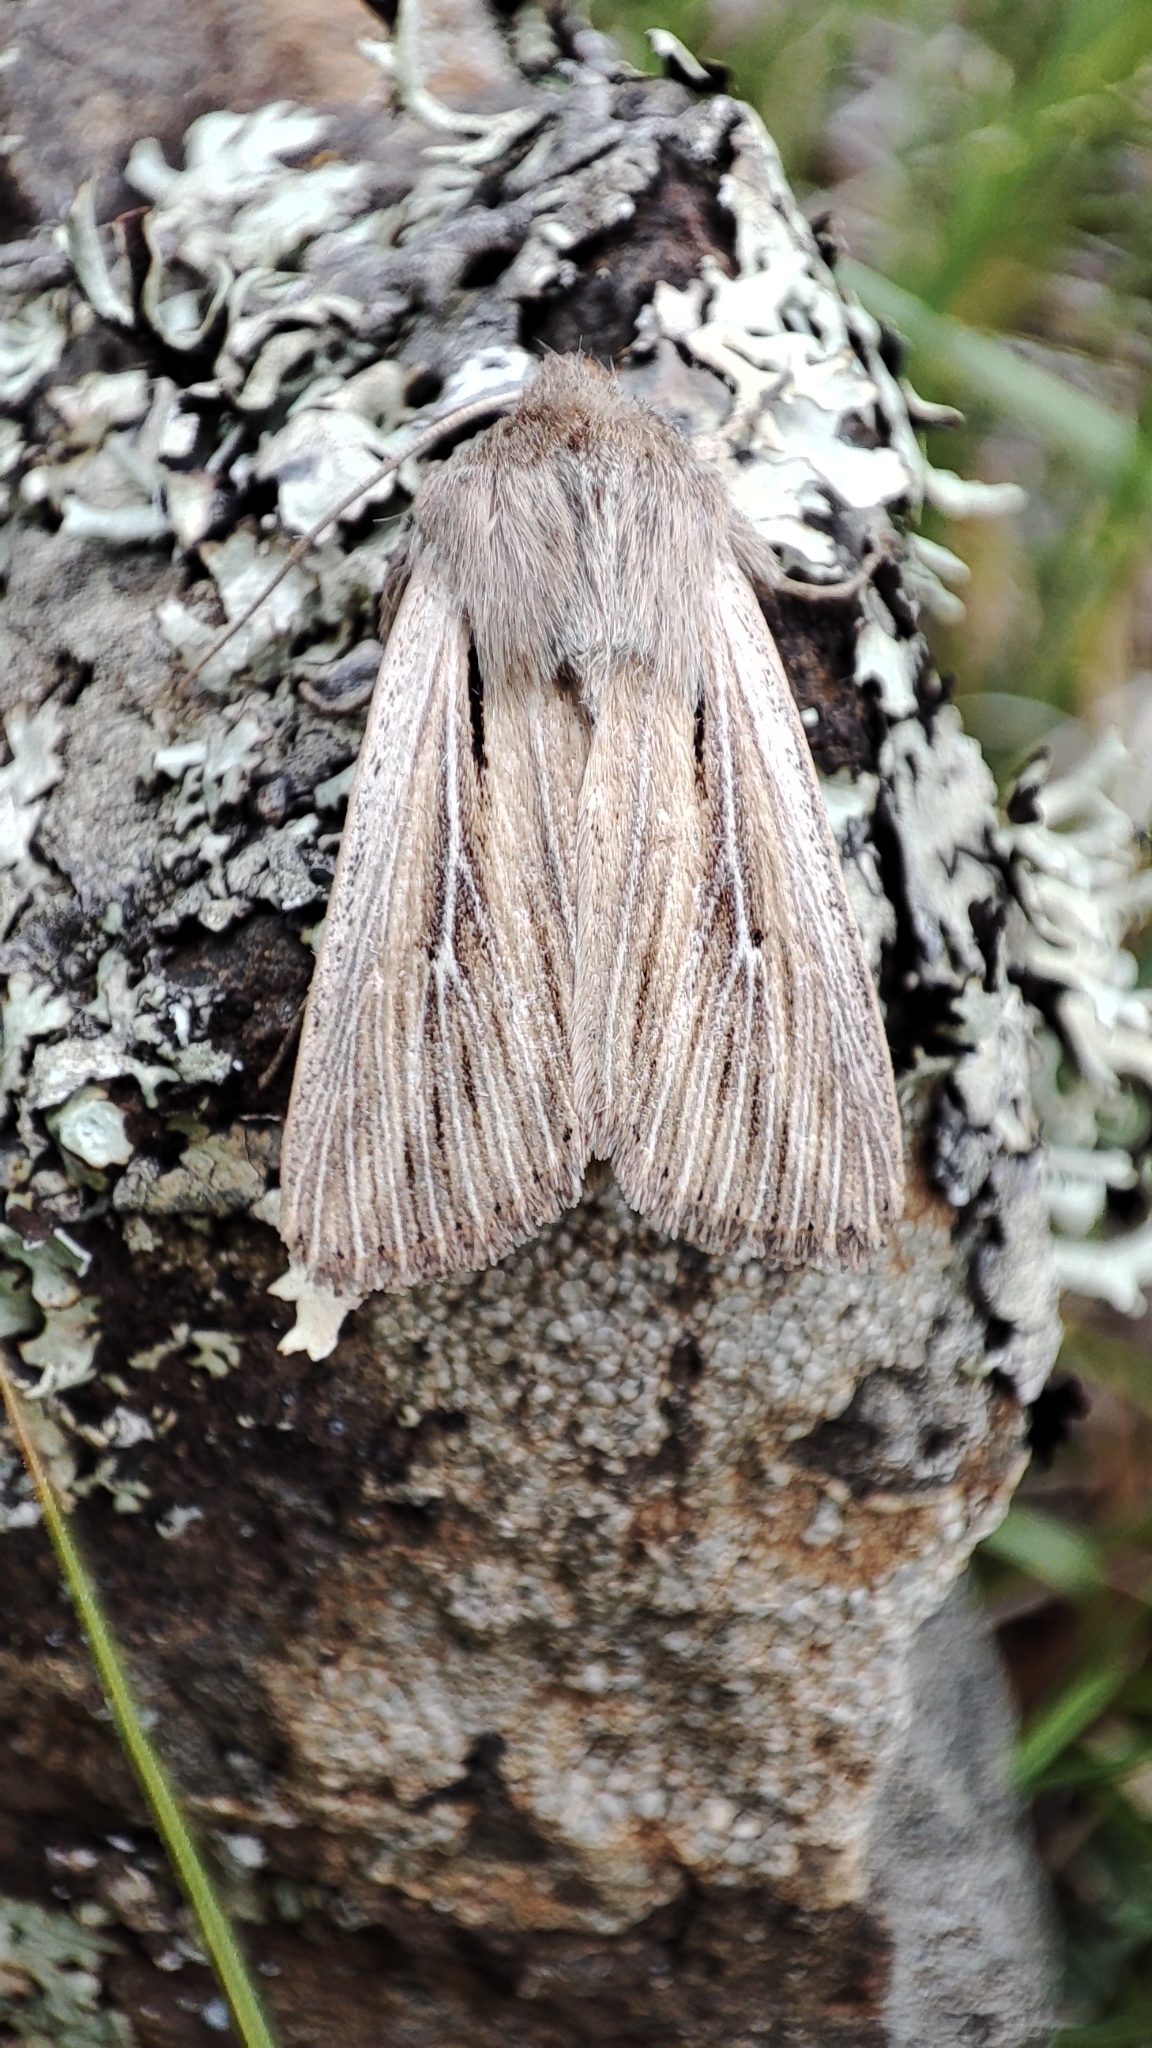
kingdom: Animalia
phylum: Arthropoda
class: Insecta
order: Lepidoptera
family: Noctuidae
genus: Leucania
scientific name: Leucania comma
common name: Shoulder-striped wainscot
